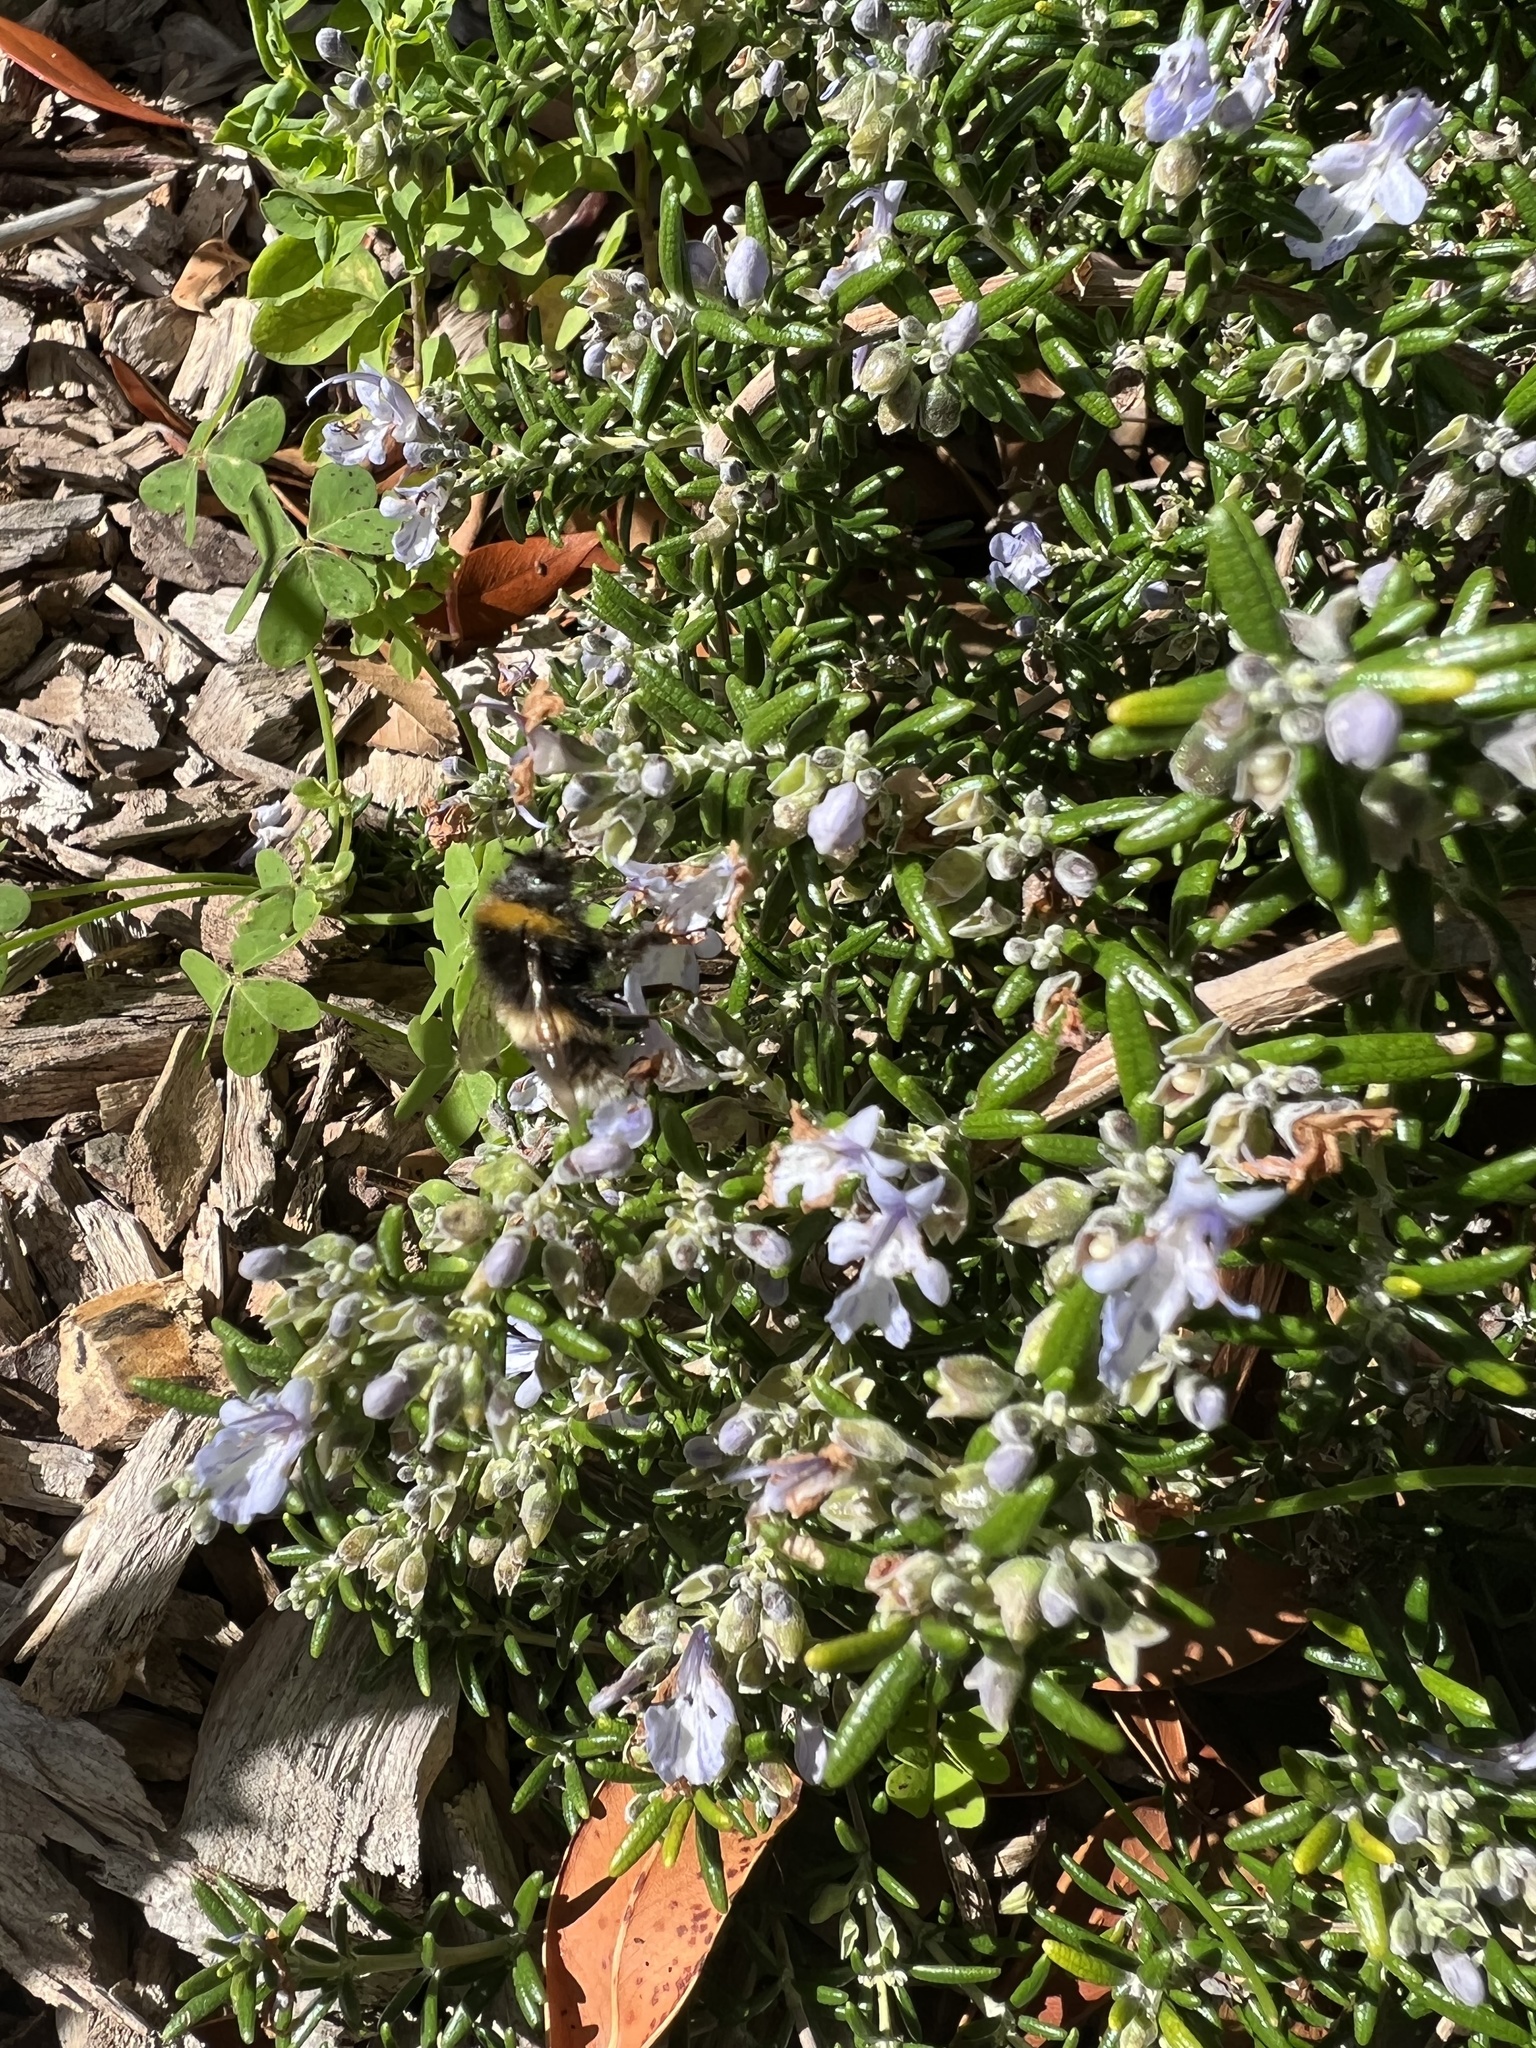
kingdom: Animalia
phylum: Arthropoda
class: Insecta
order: Hymenoptera
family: Apidae
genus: Bombus
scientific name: Bombus terrestris
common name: Buff-tailed bumblebee
